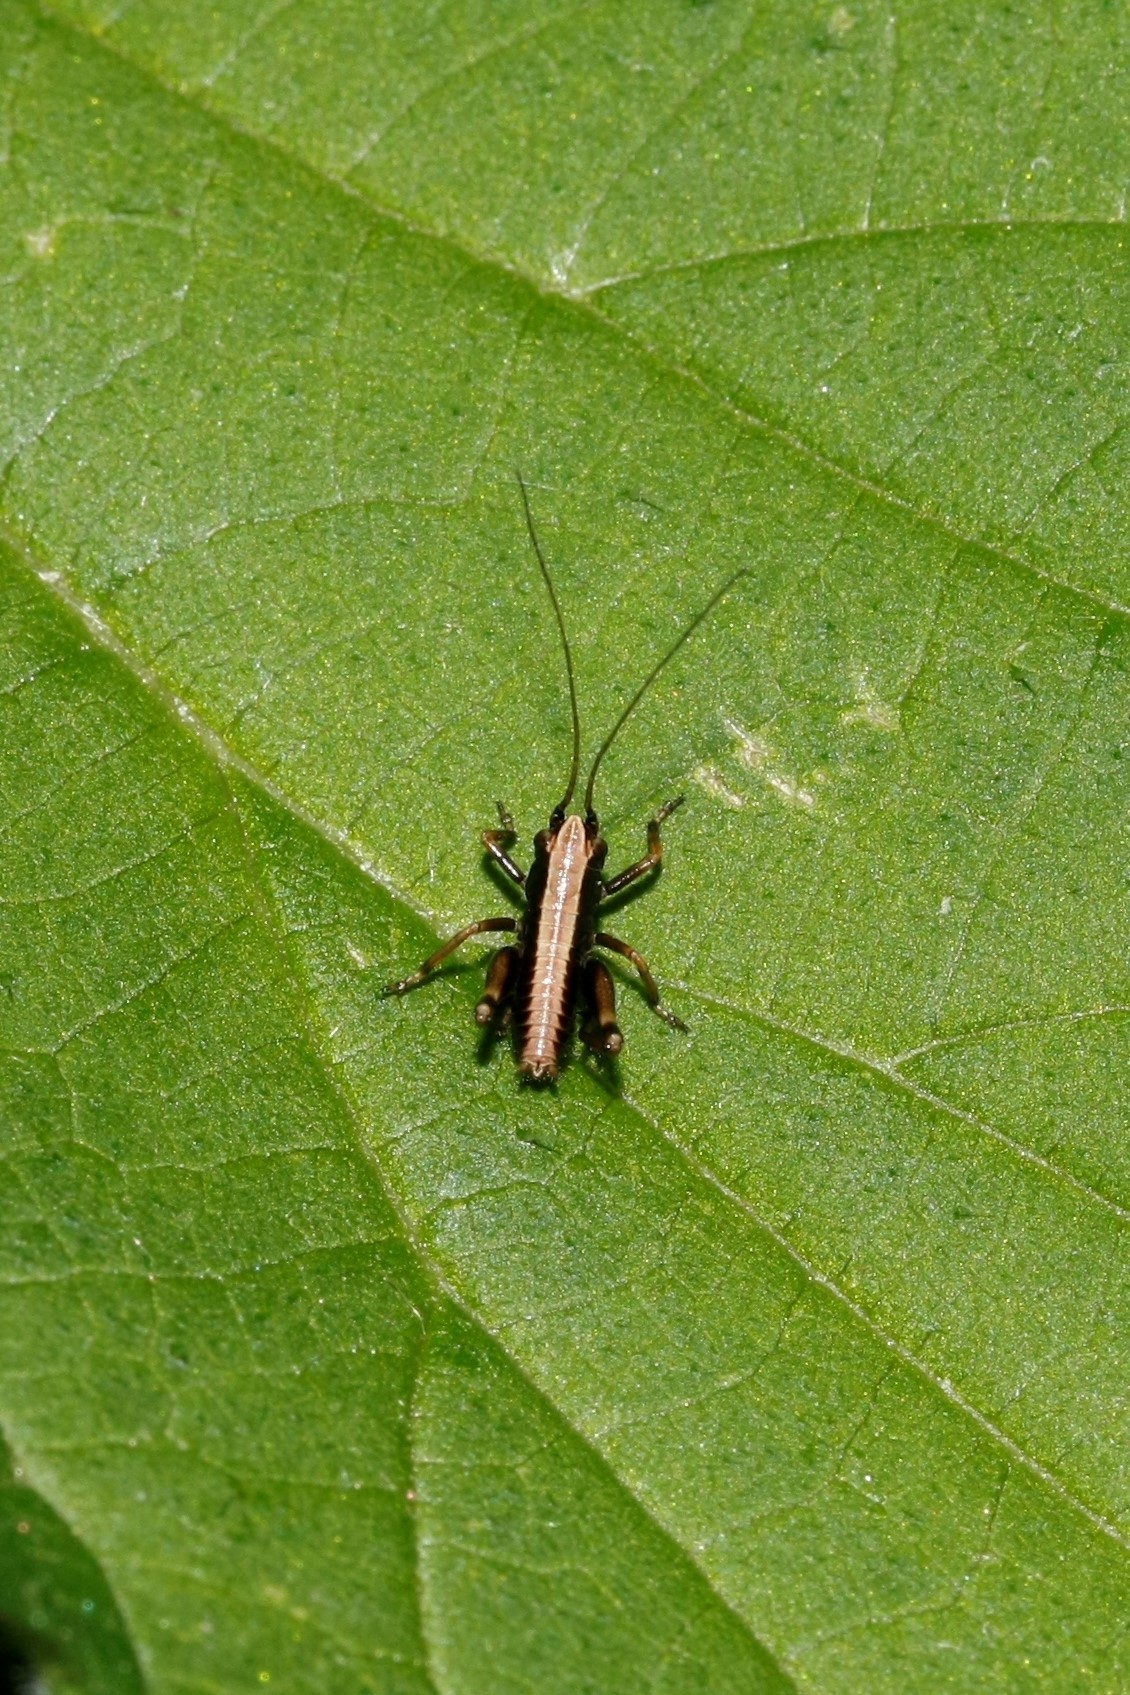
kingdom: Animalia
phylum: Arthropoda
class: Insecta
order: Orthoptera
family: Tettigoniidae
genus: Pholidoptera
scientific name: Pholidoptera griseoaptera
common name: Dark bush-cricket
